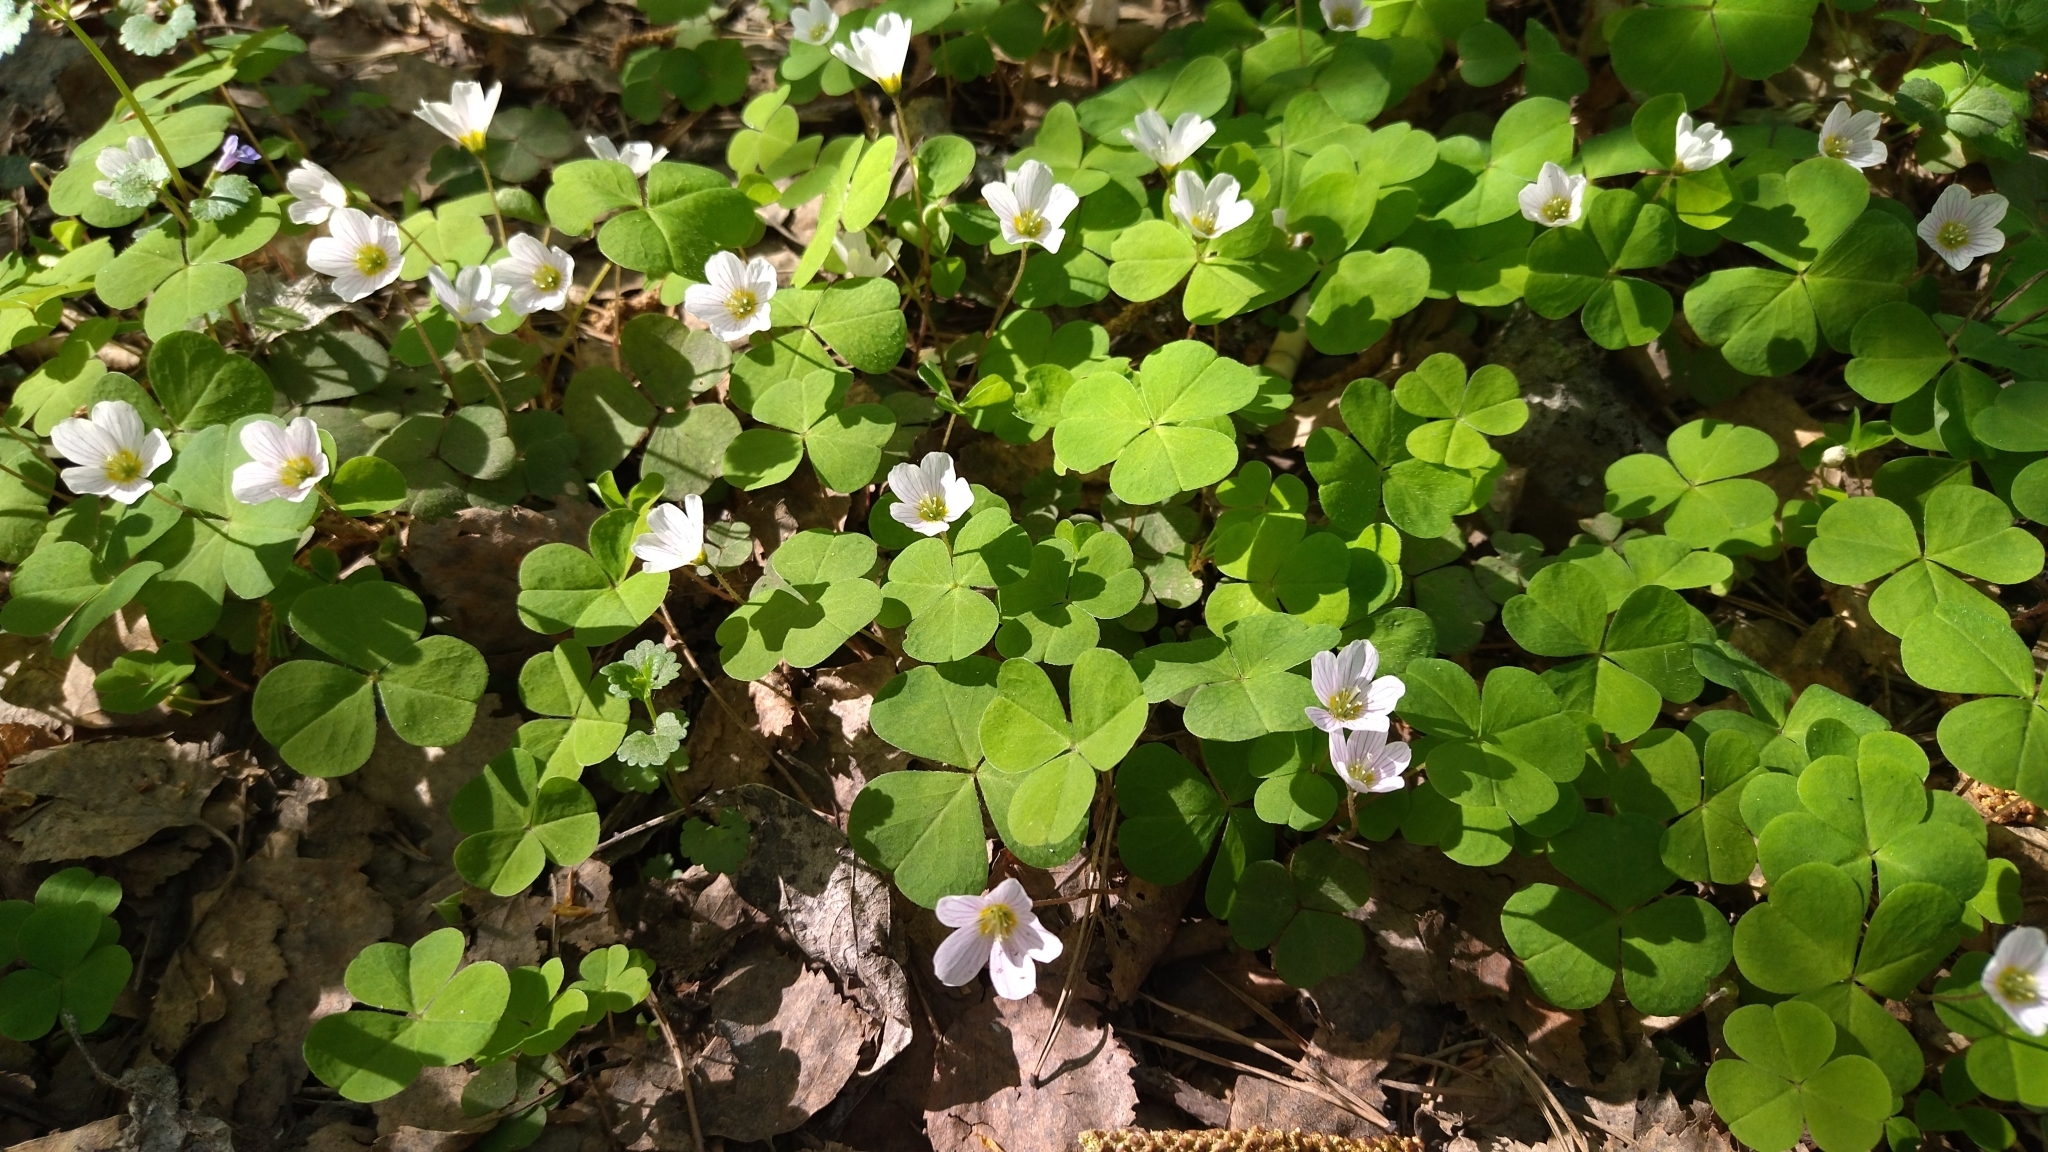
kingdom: Plantae
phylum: Tracheophyta
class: Magnoliopsida
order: Oxalidales
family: Oxalidaceae
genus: Oxalis
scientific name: Oxalis acetosella
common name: Wood-sorrel
